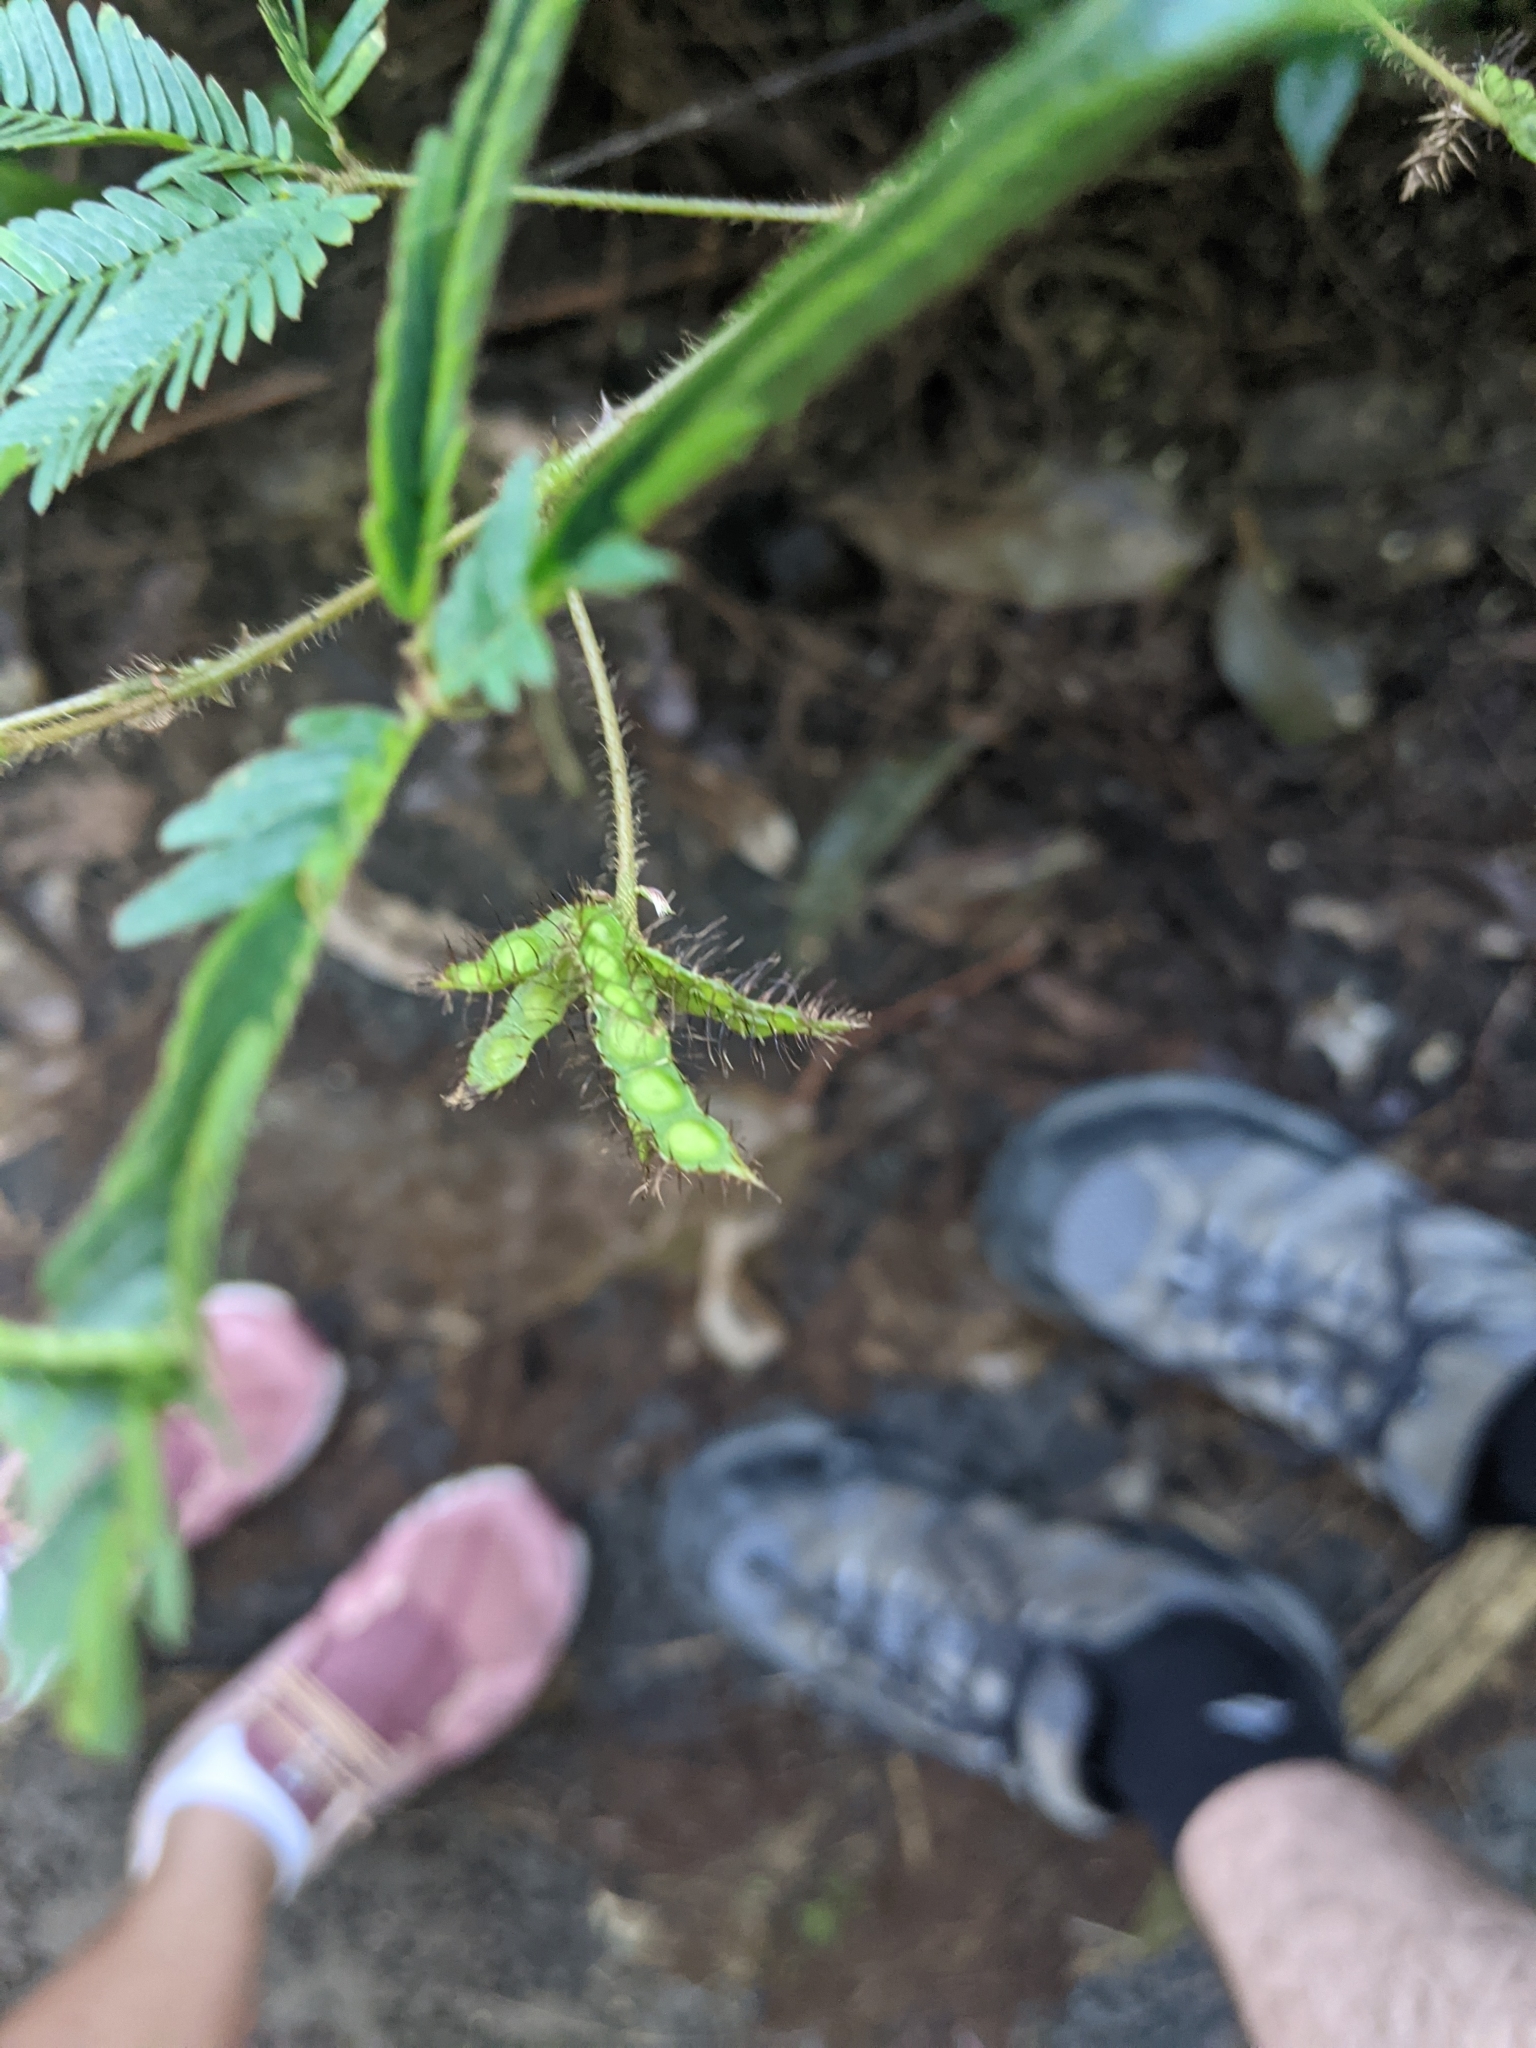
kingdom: Plantae
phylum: Tracheophyta
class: Magnoliopsida
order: Fabales
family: Fabaceae
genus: Mimosa
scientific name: Mimosa pudica
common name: Sensitive plant
